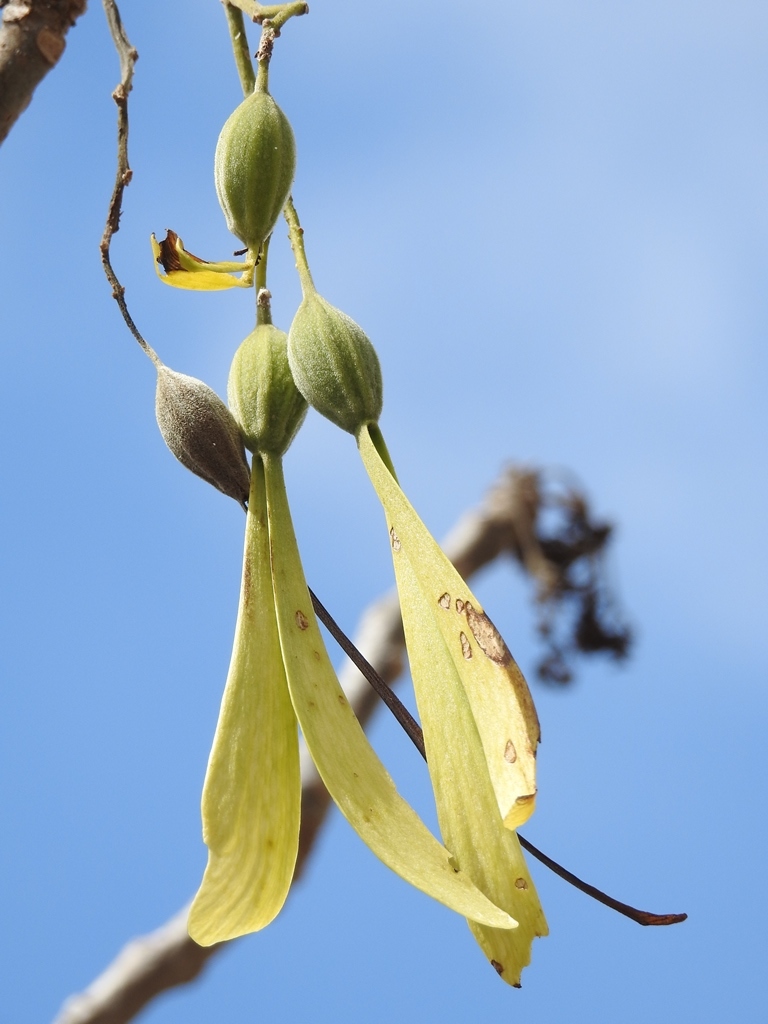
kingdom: Plantae
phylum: Tracheophyta
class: Magnoliopsida
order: Laurales
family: Hernandiaceae
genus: Gyrocarpus
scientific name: Gyrocarpus mocinoi
